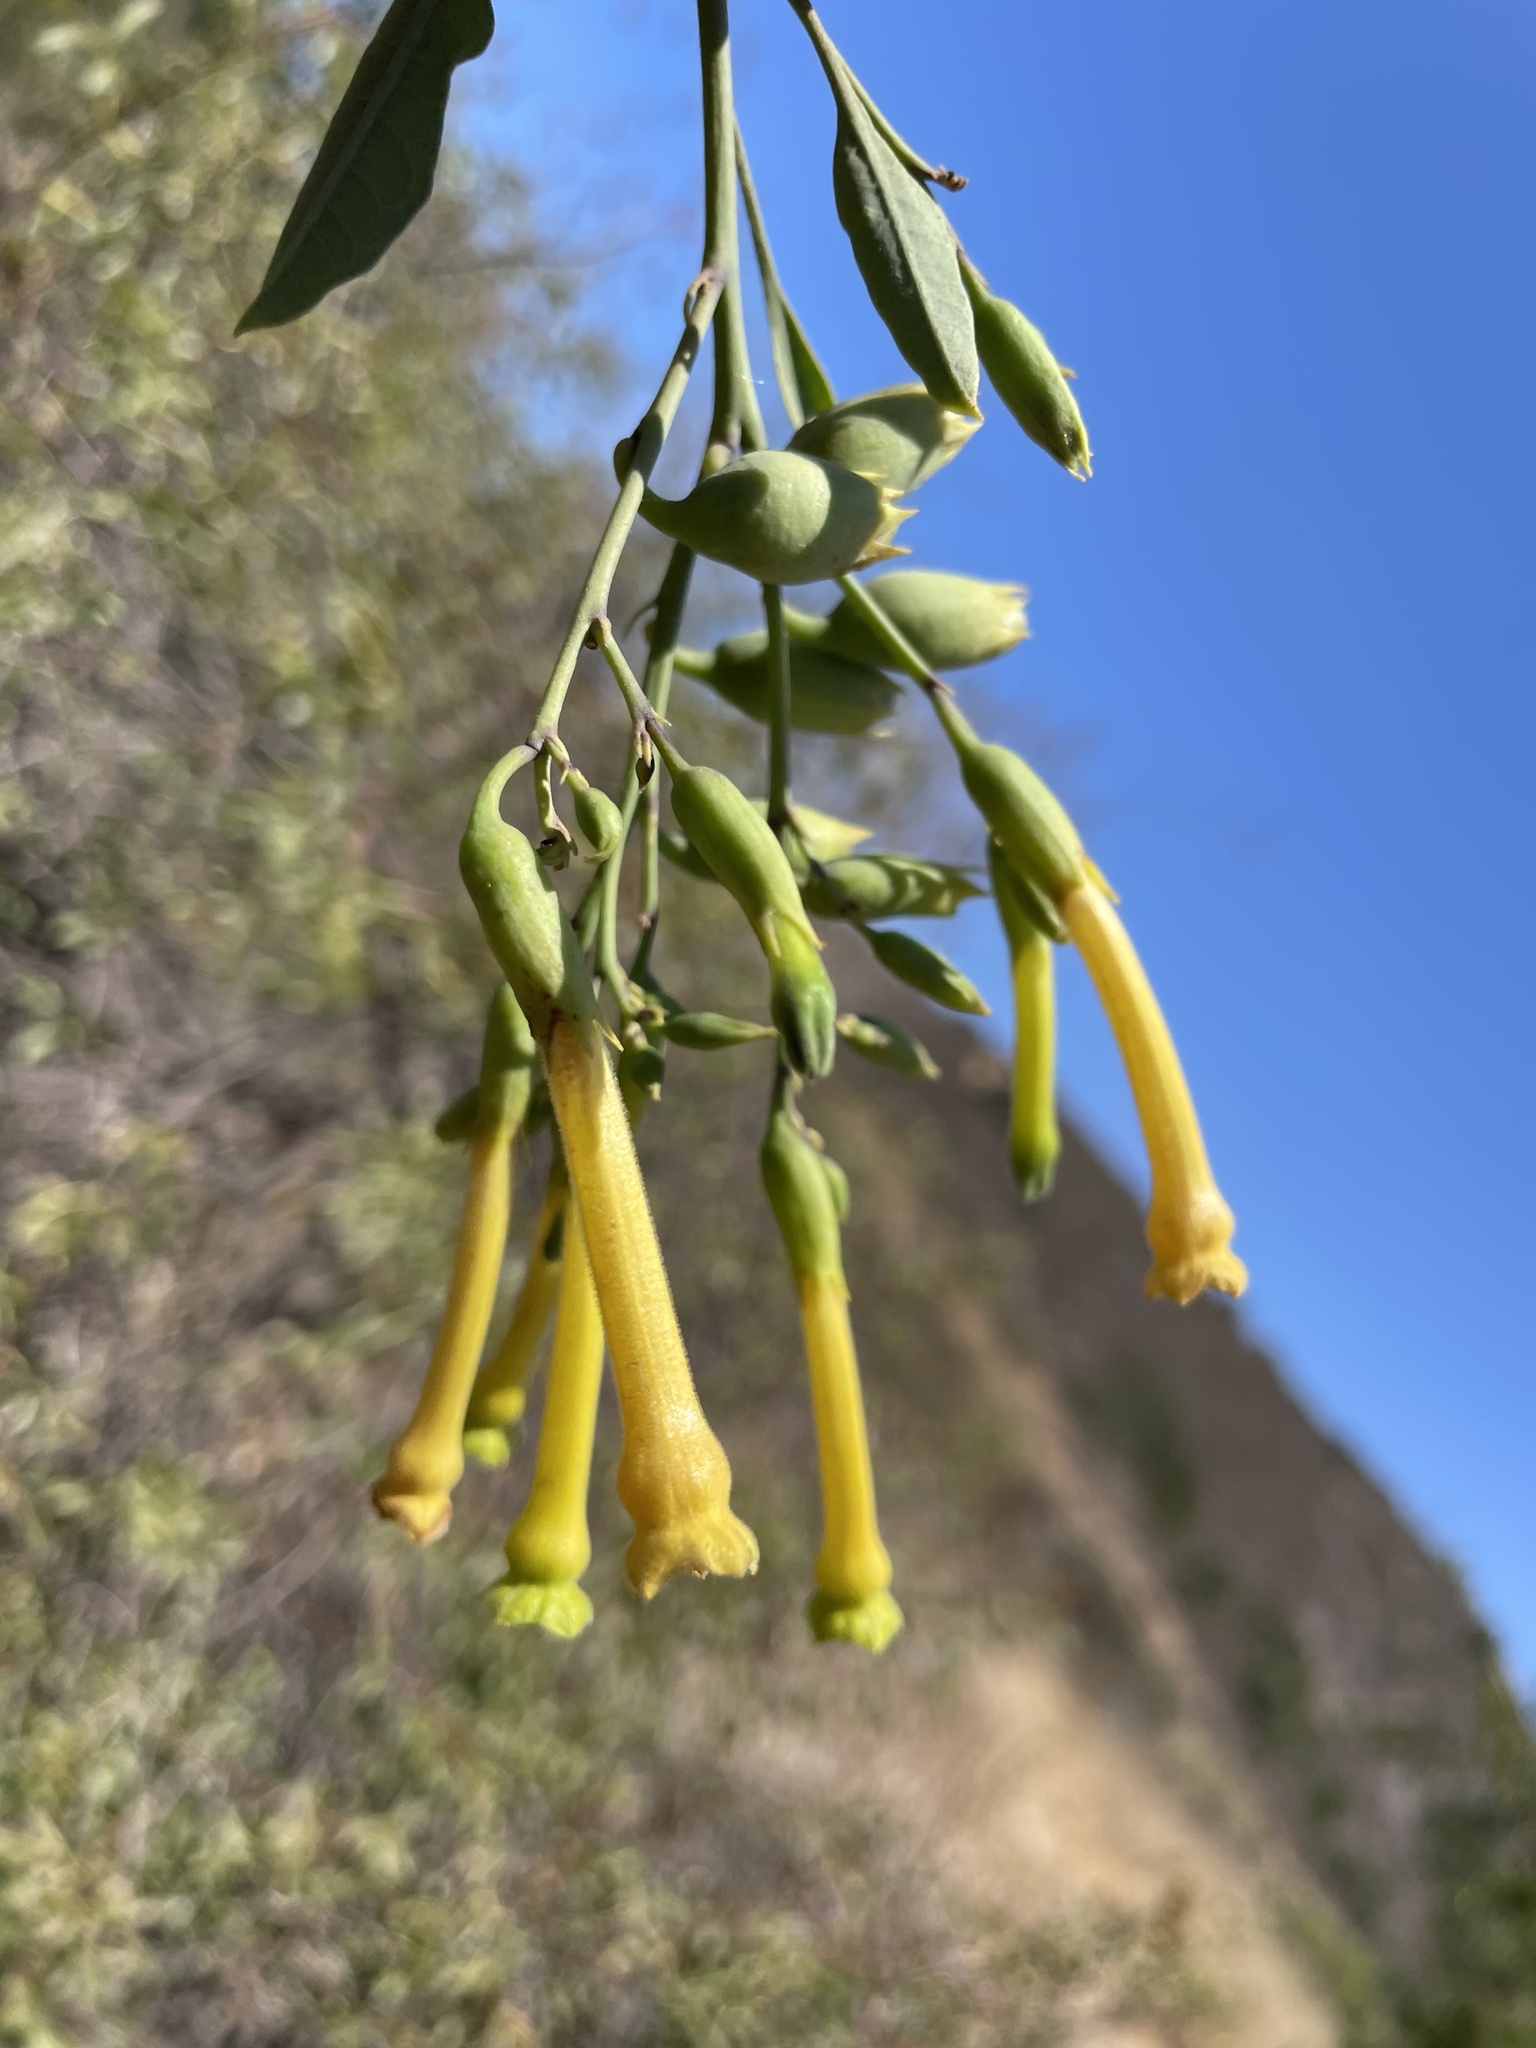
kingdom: Plantae
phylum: Tracheophyta
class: Magnoliopsida
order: Solanales
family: Solanaceae
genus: Nicotiana
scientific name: Nicotiana glauca
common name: Tree tobacco
